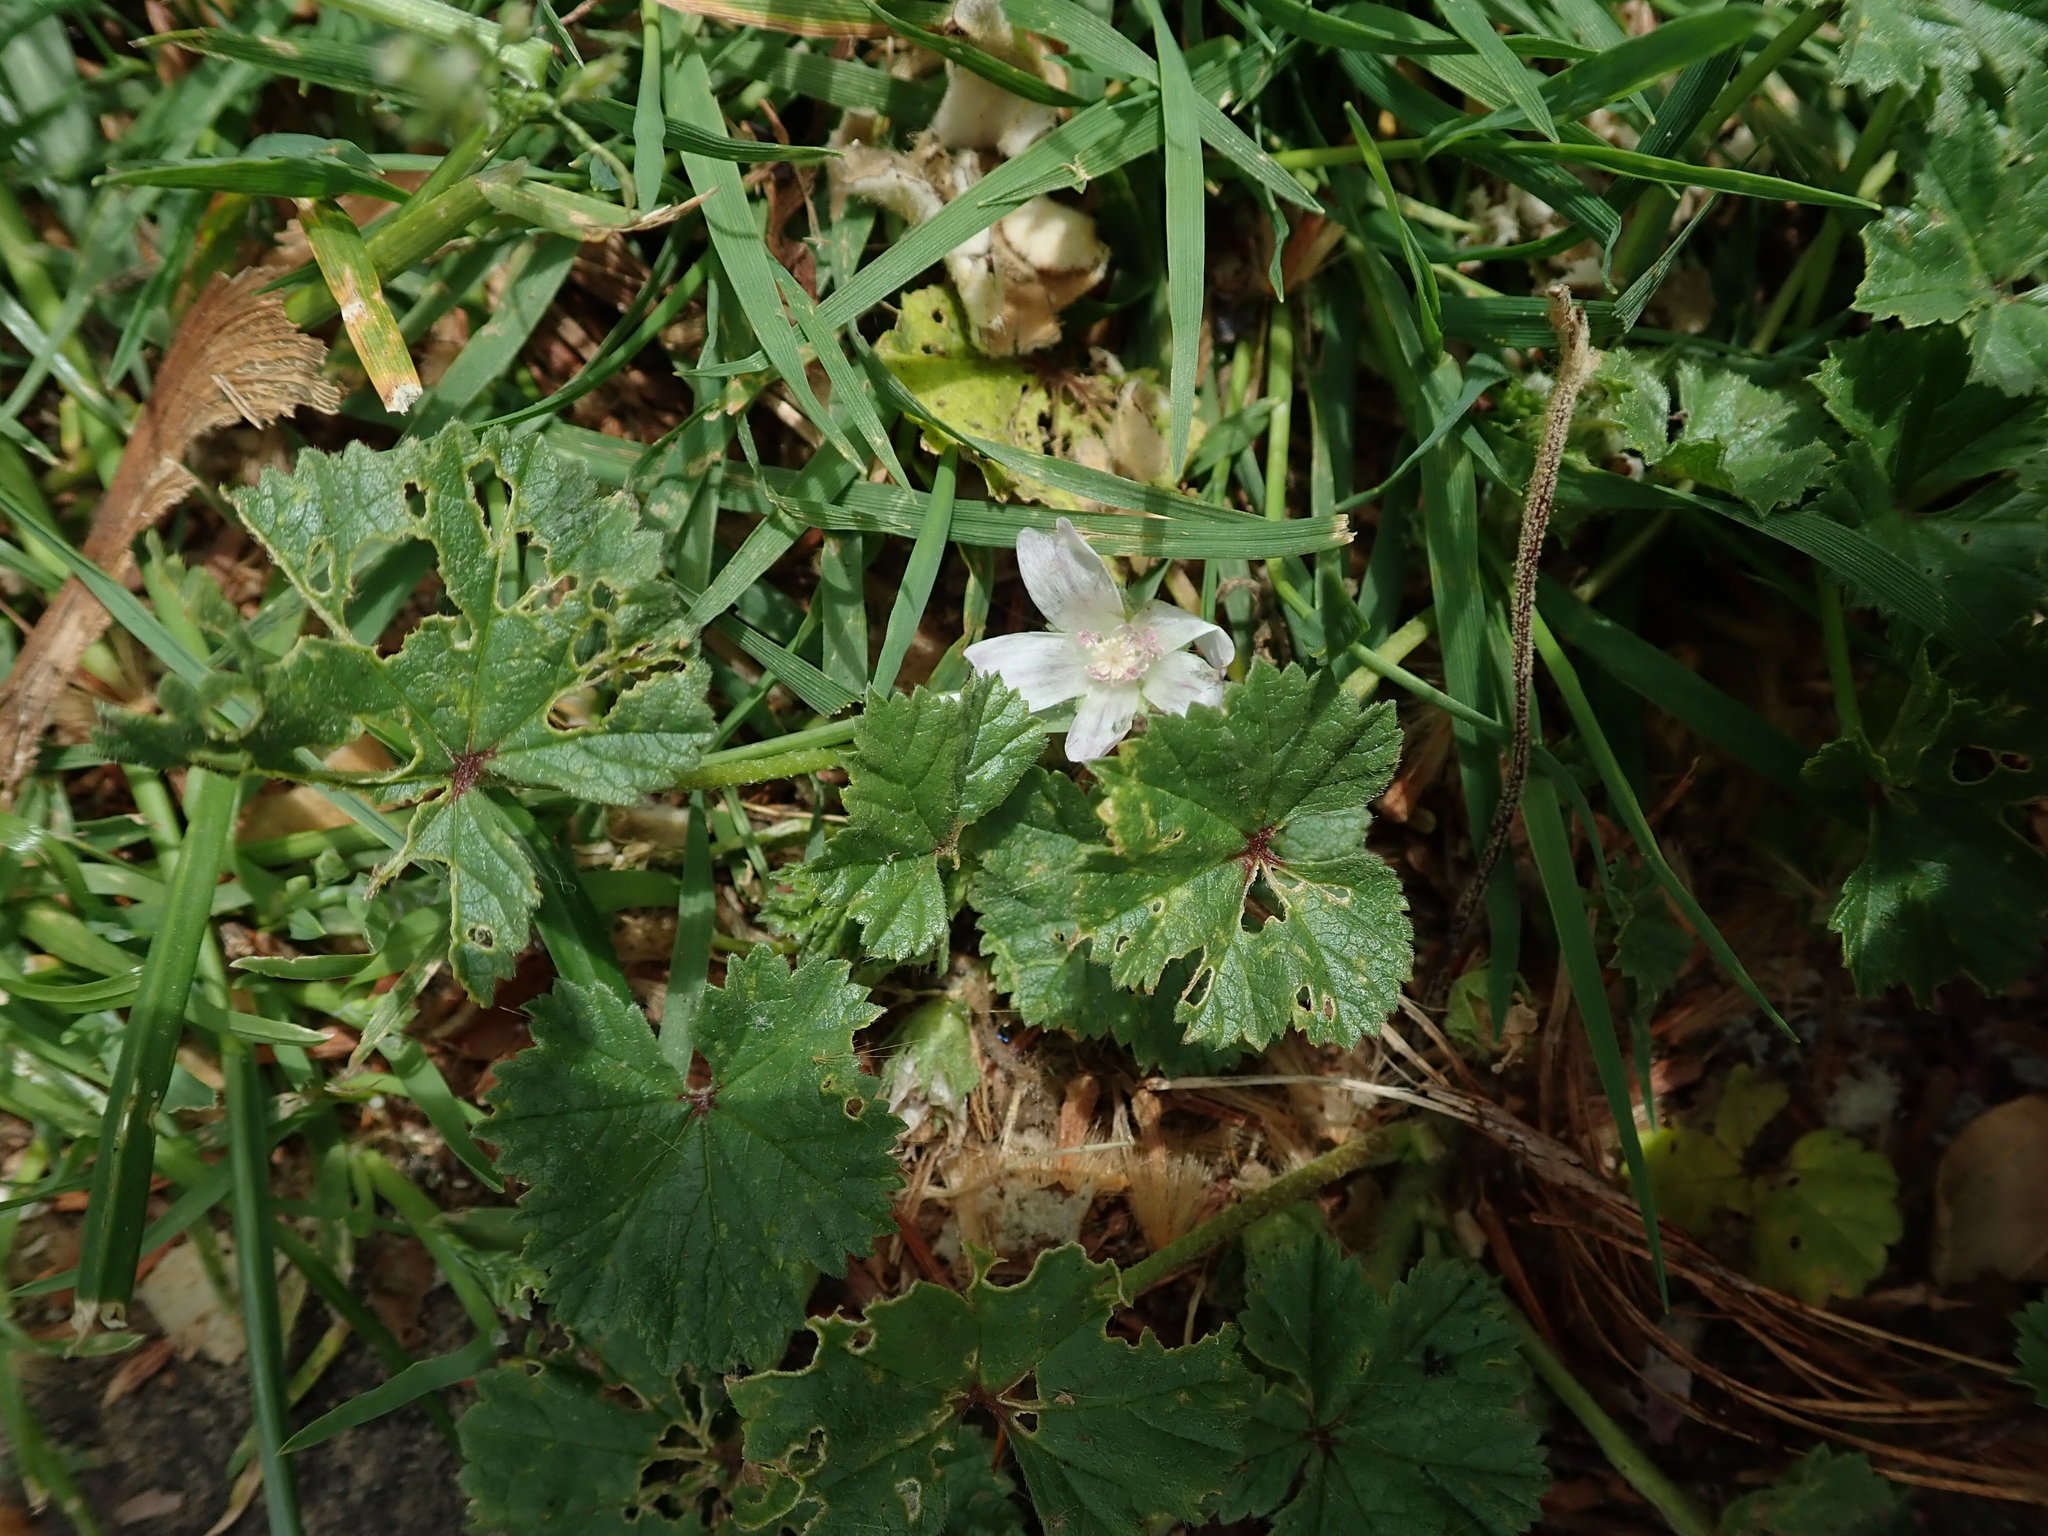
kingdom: Plantae
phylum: Tracheophyta
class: Magnoliopsida
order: Malvales
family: Malvaceae
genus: Malva
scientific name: Malva neglecta
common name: Common mallow
